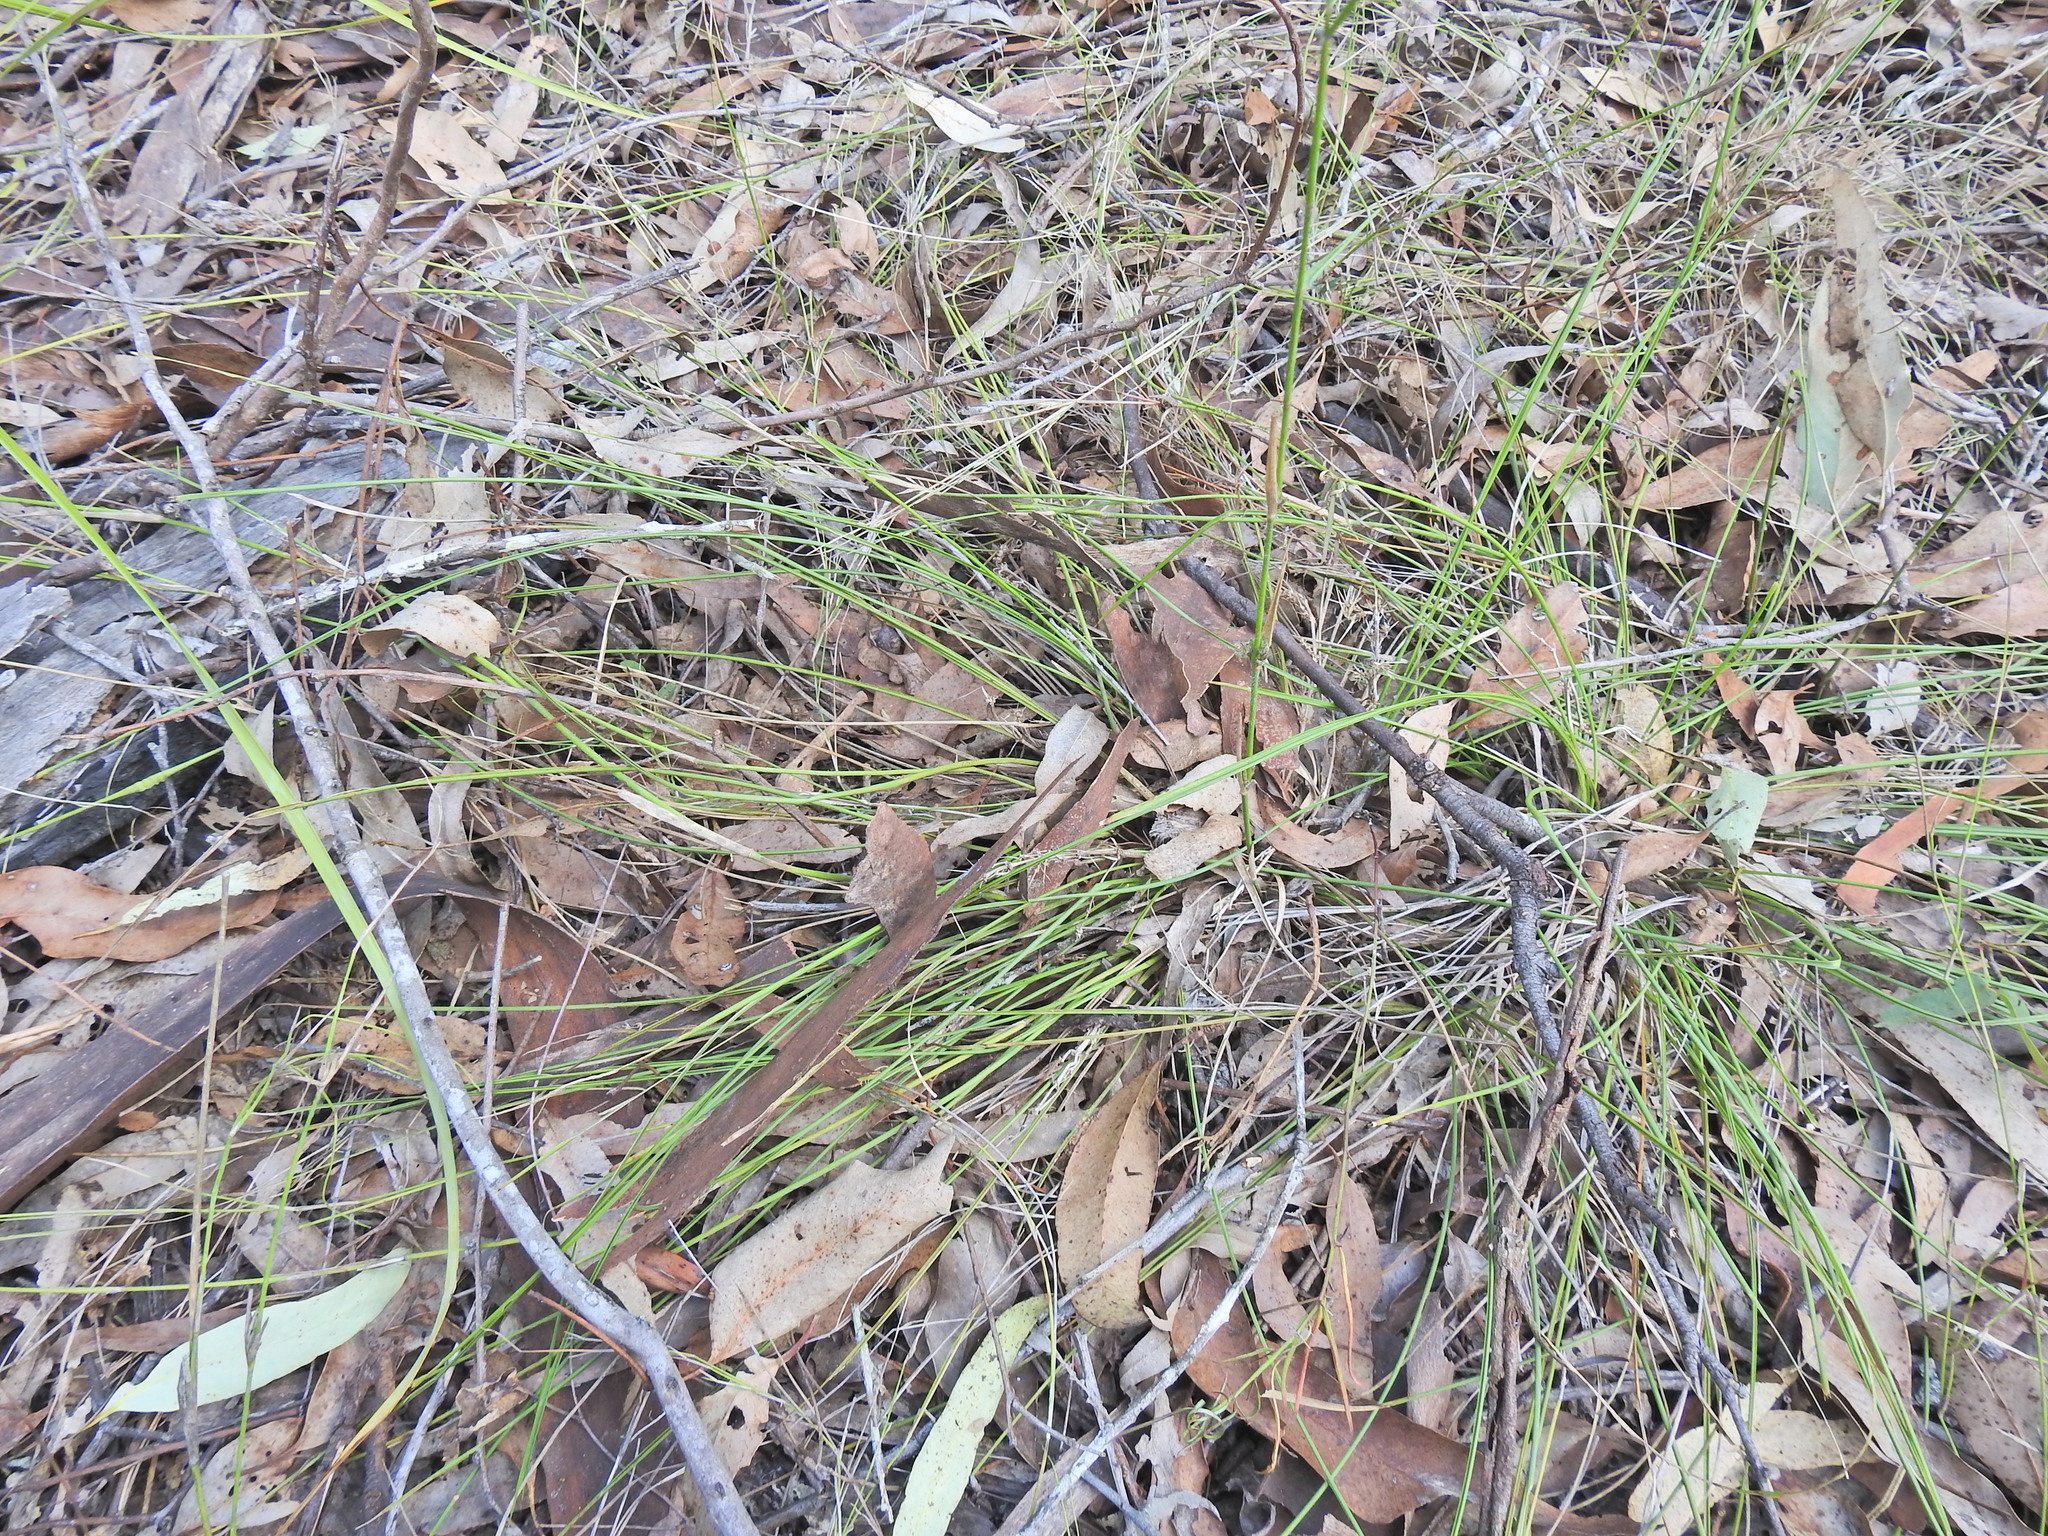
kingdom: Plantae
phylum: Tracheophyta
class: Liliopsida
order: Asparagales
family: Asparagaceae
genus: Lomandra
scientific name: Lomandra confertifolia
